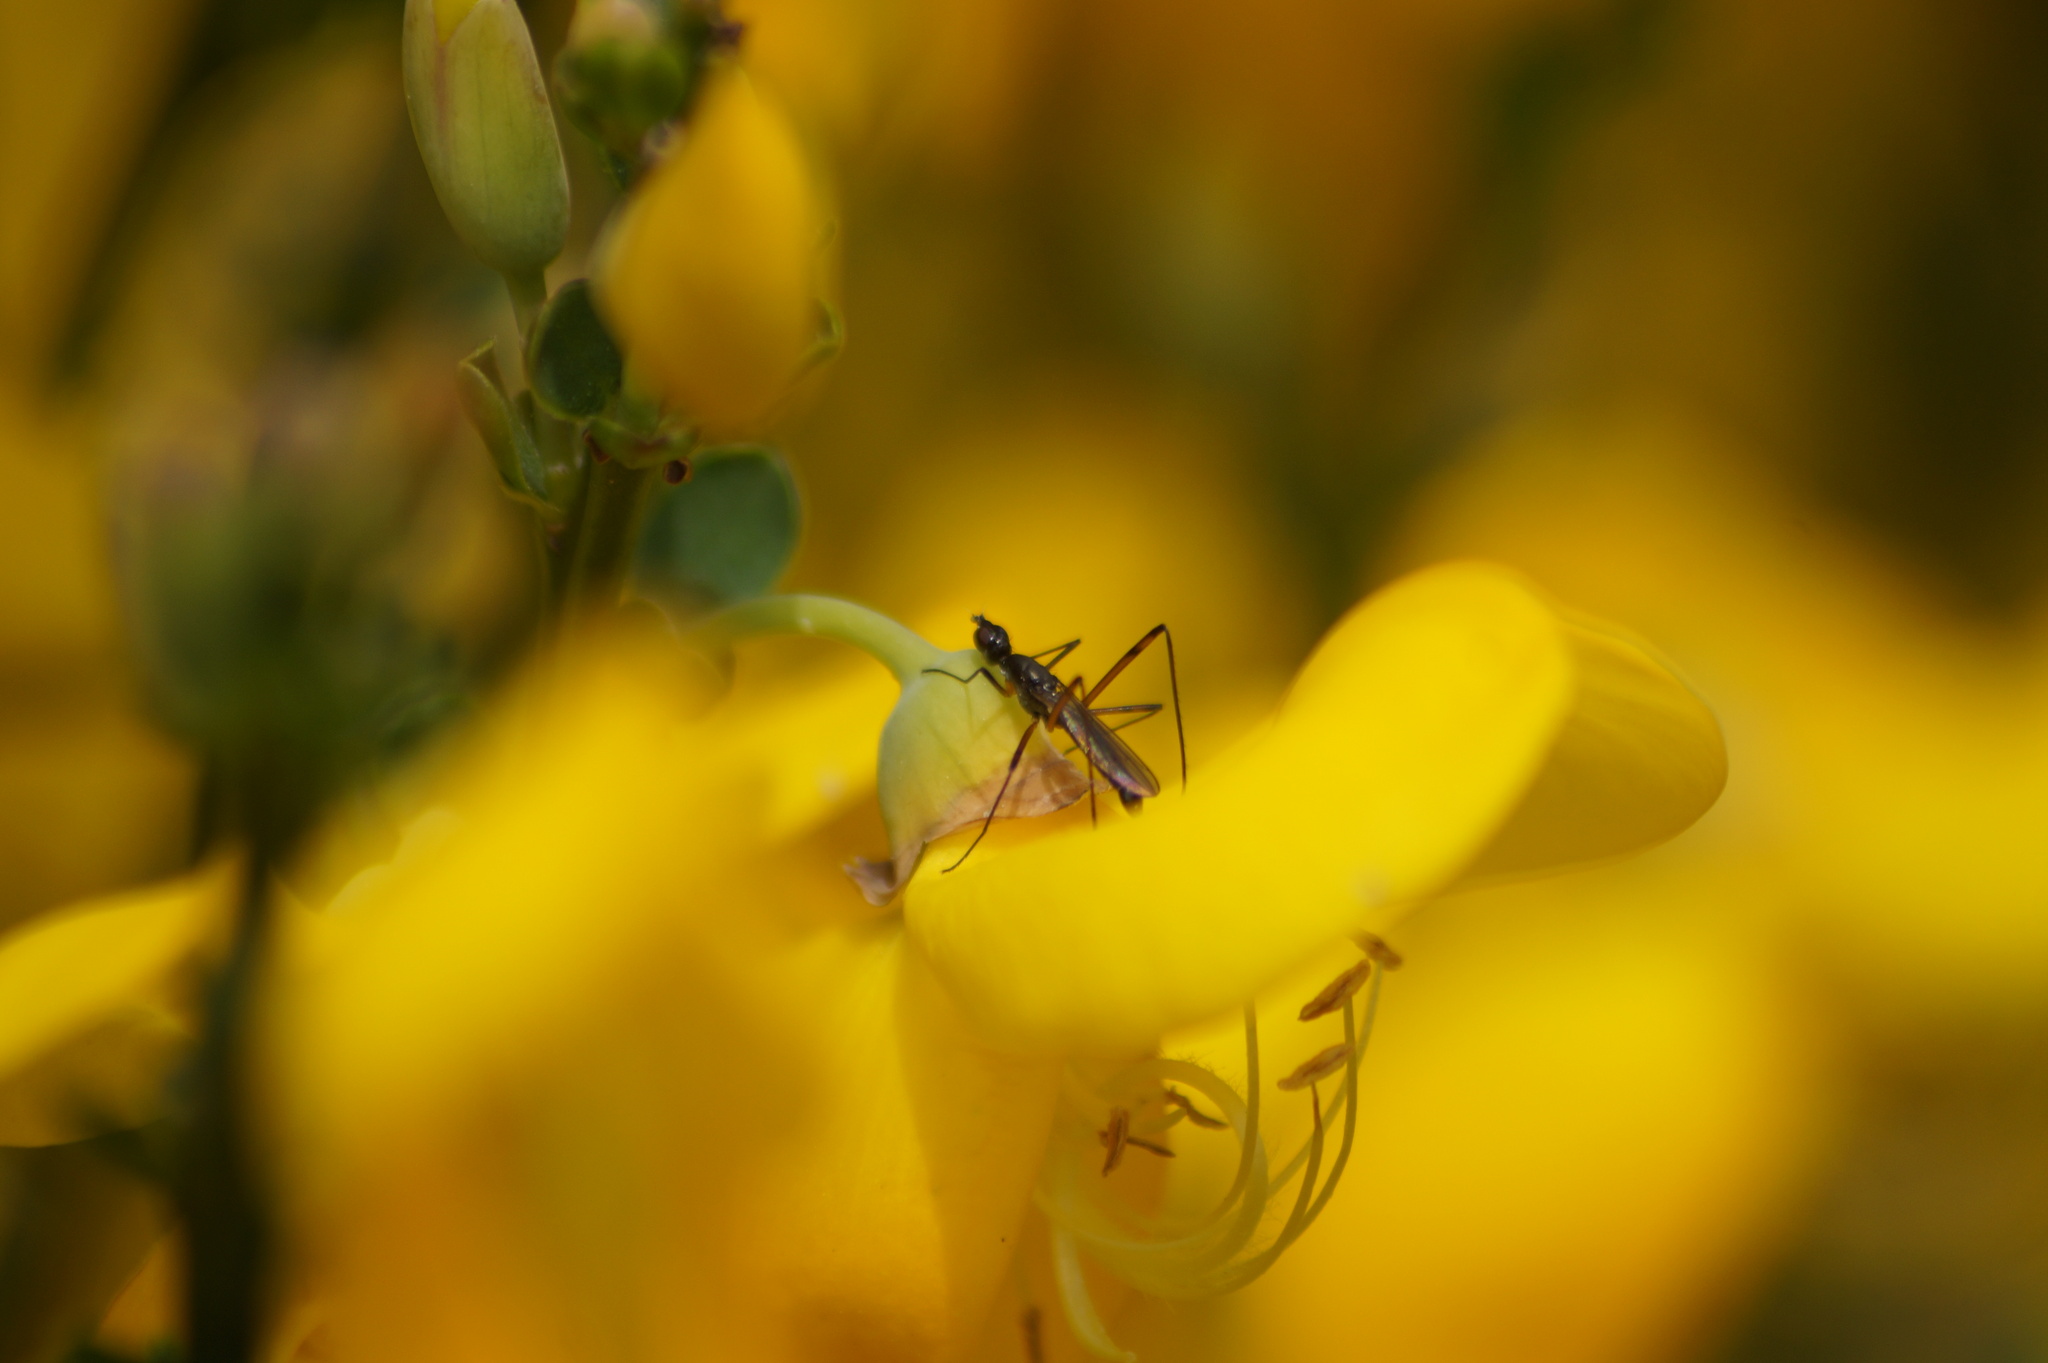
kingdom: Animalia
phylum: Arthropoda
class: Insecta
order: Diptera
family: Micropezidae
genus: Micropeza
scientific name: Micropeza corrigiolata
